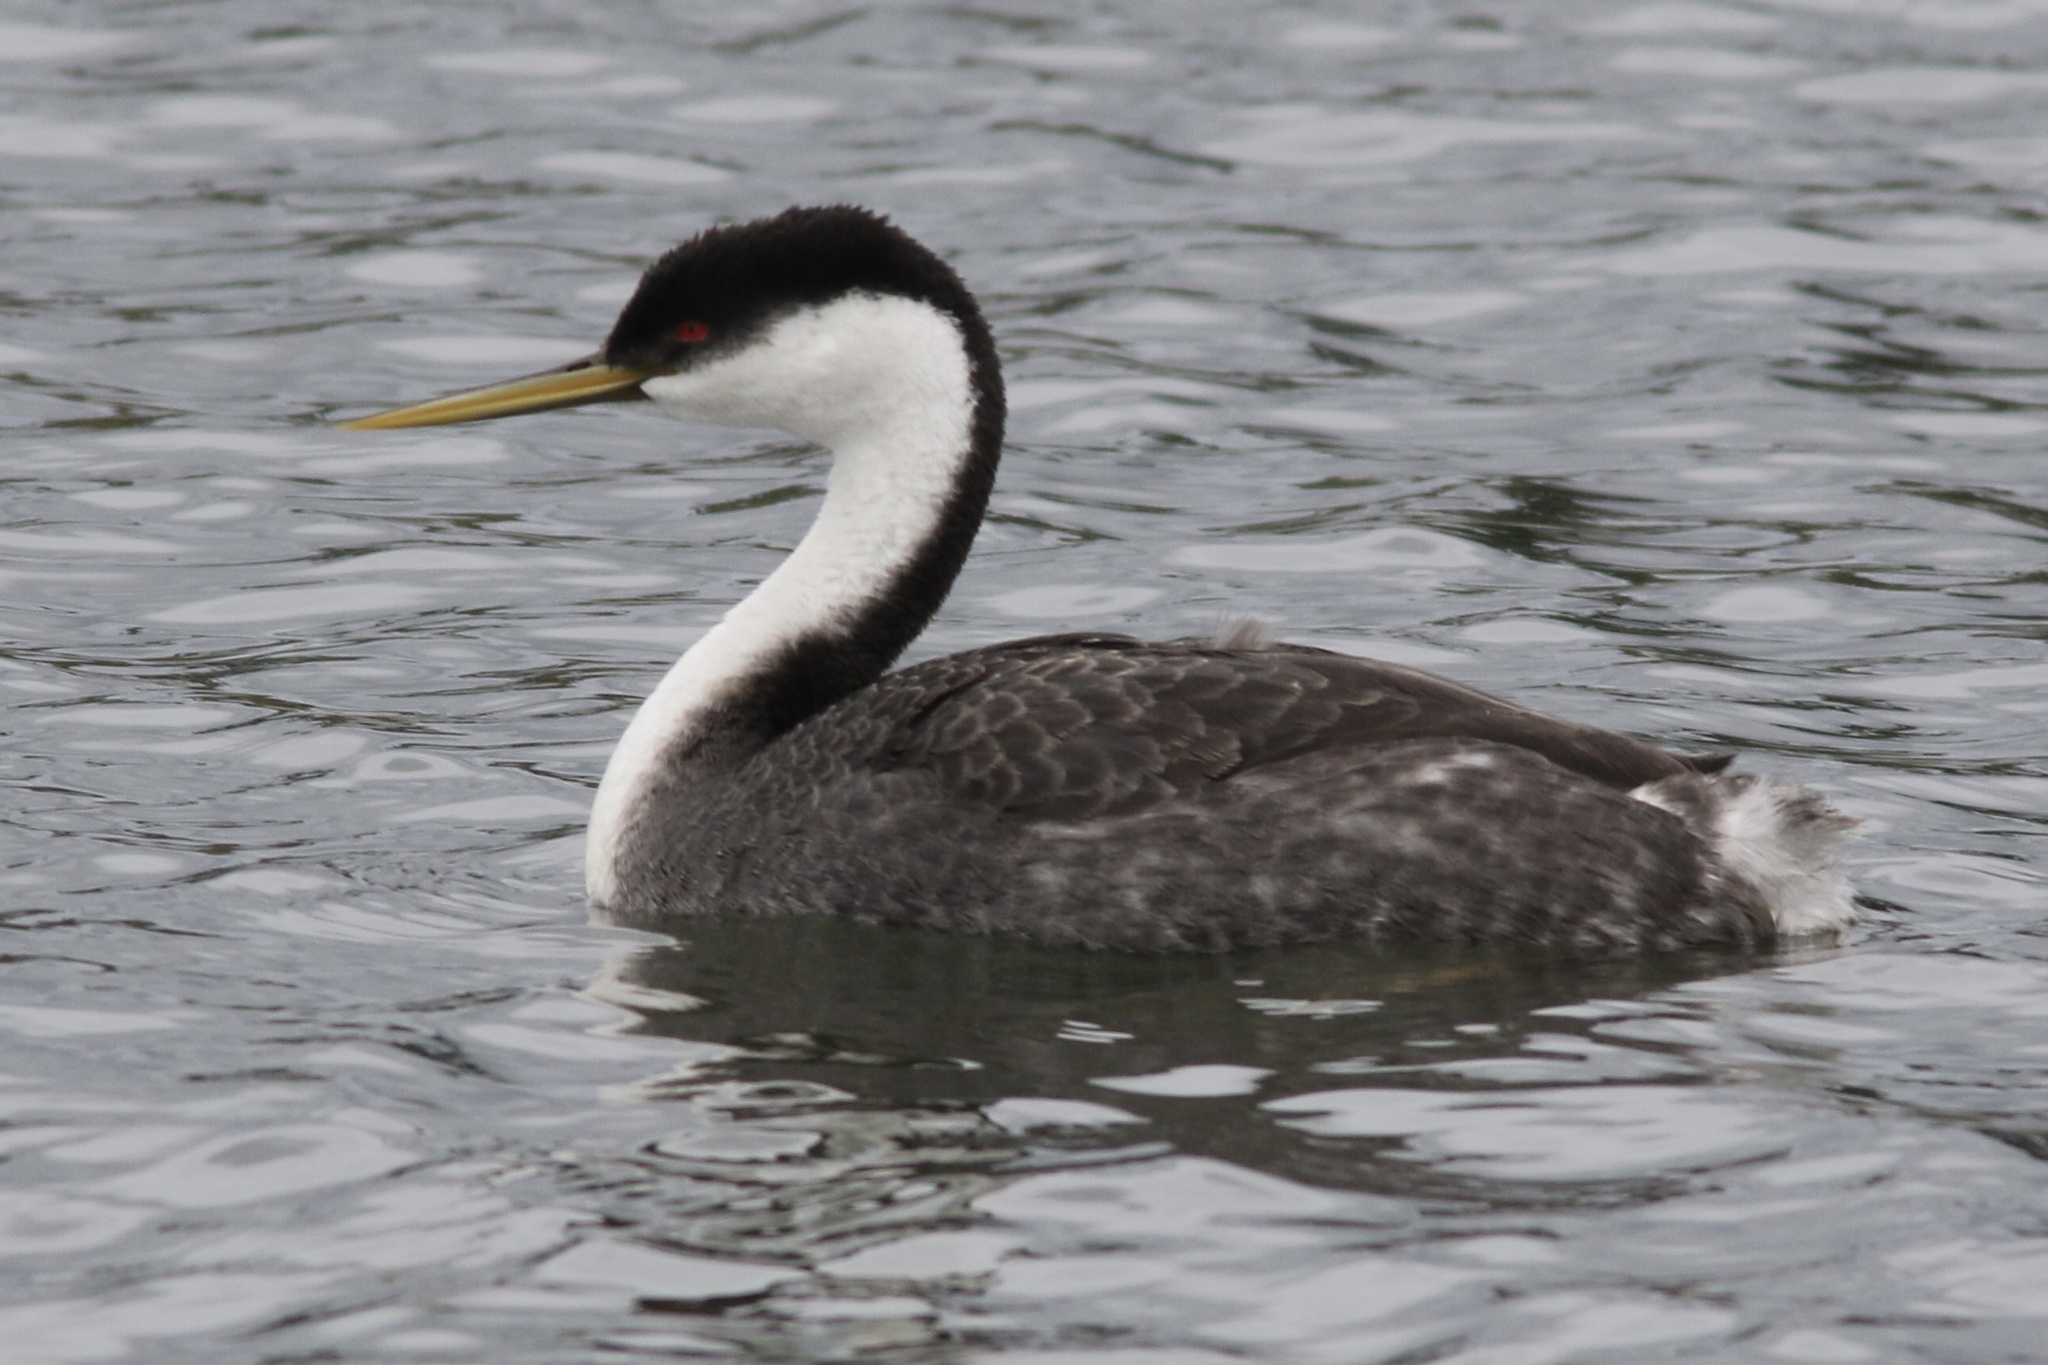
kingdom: Animalia
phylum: Chordata
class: Aves
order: Podicipediformes
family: Podicipedidae
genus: Aechmophorus
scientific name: Aechmophorus occidentalis
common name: Western grebe
